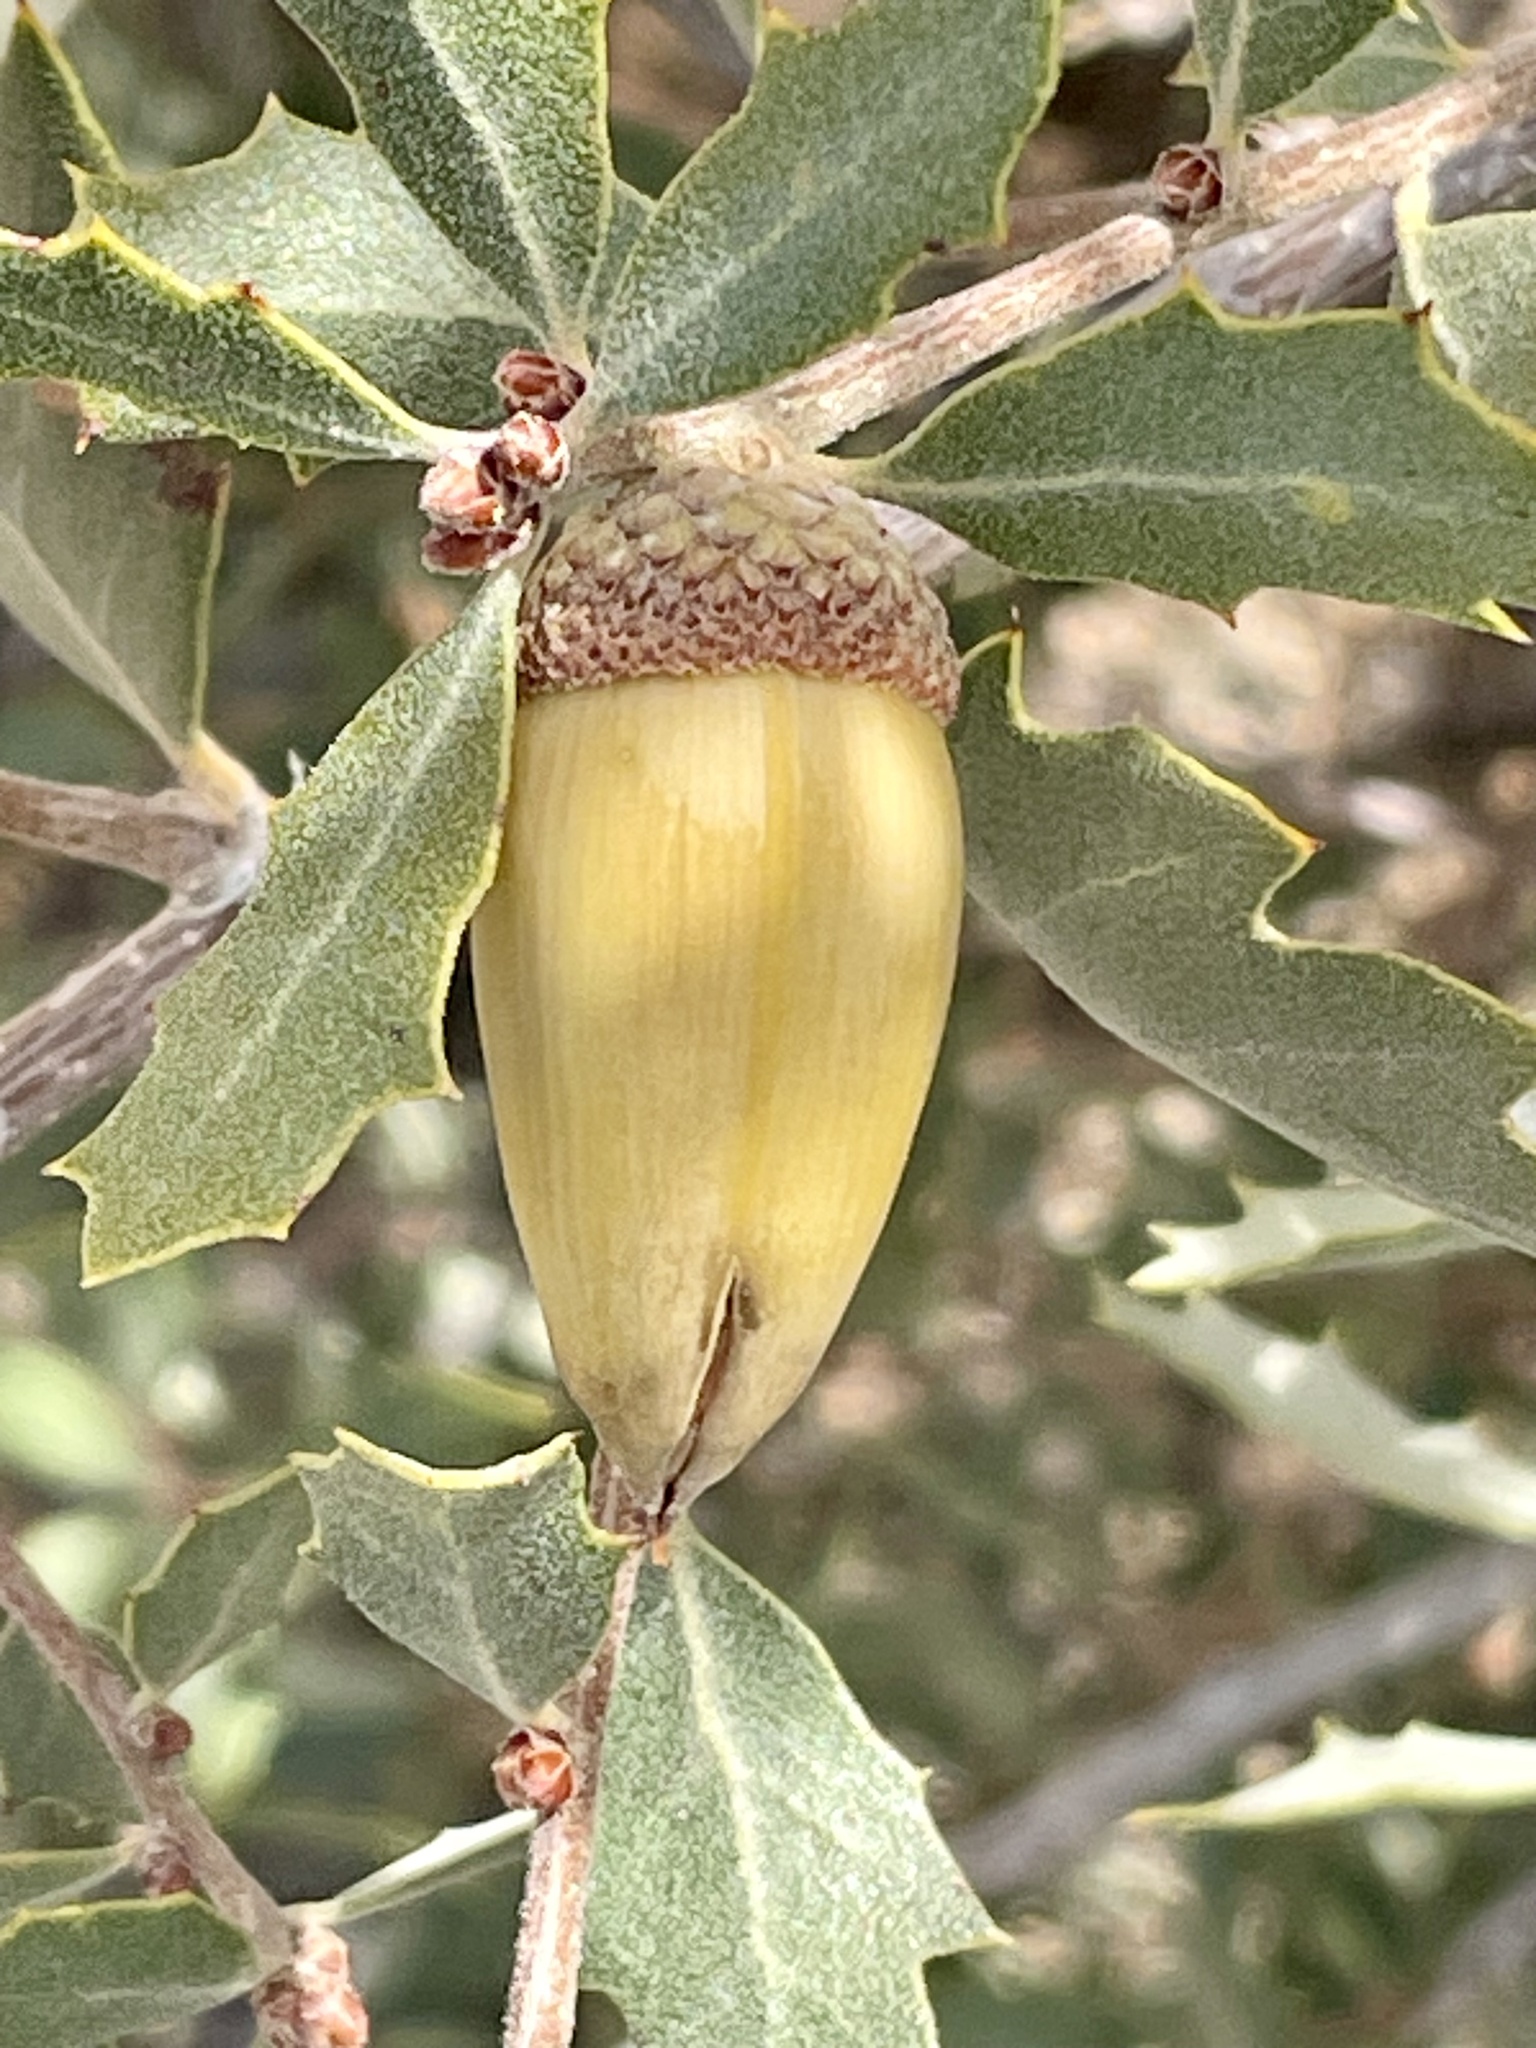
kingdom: Plantae
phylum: Tracheophyta
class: Magnoliopsida
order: Fagales
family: Fagaceae
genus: Quercus
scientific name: Quercus cornelius-mulleri
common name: Muller oak
